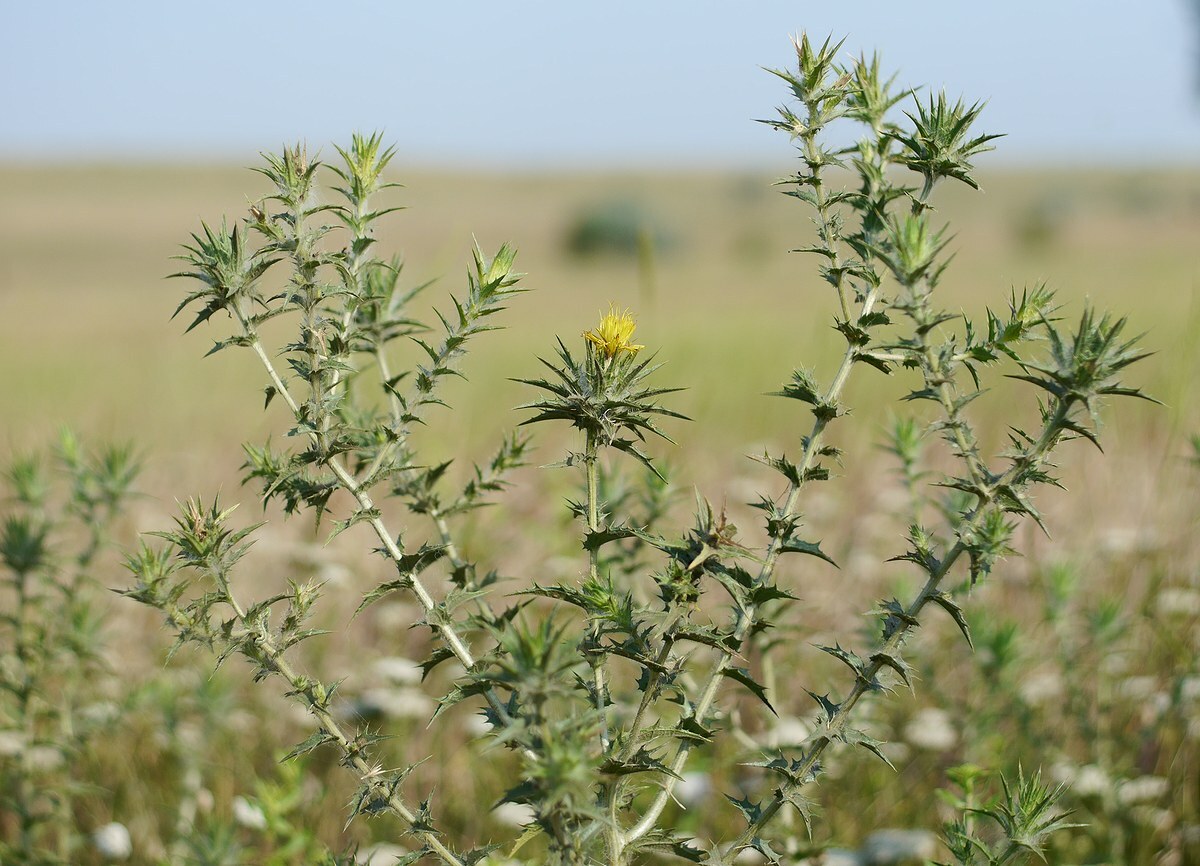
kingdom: Plantae
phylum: Tracheophyta
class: Magnoliopsida
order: Asterales
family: Asteraceae
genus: Carthamus
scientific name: Carthamus lanatus
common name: Downy safflower
